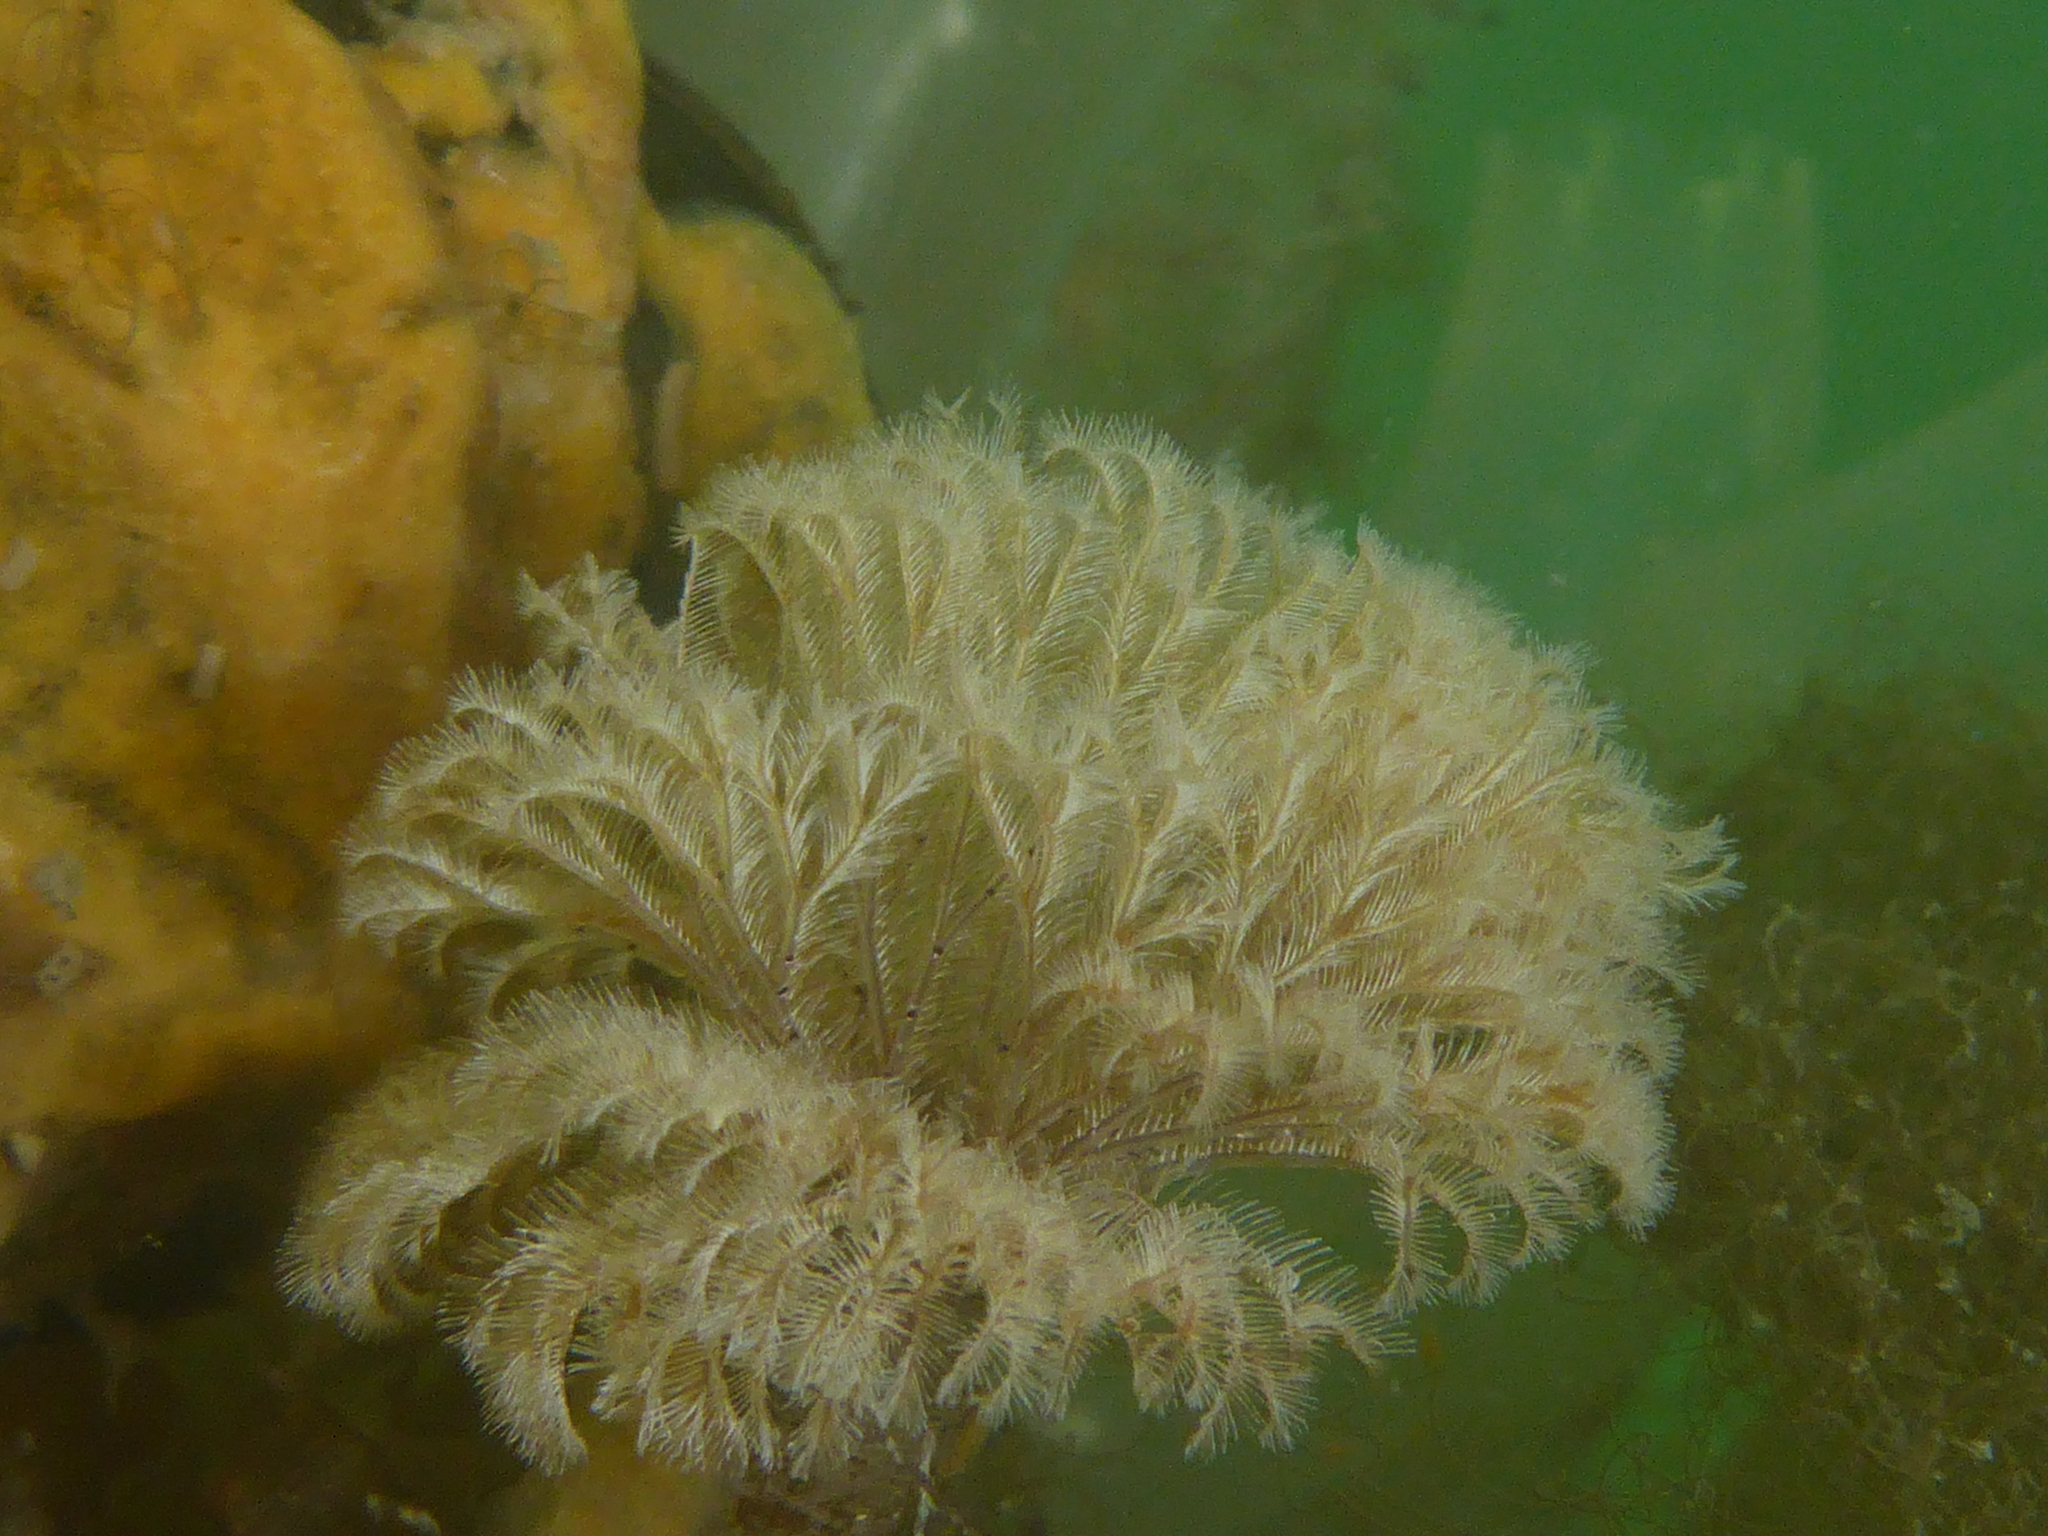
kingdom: Animalia
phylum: Annelida
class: Polychaeta
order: Sabellida
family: Sabellidae
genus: Schizobranchia
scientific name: Schizobranchia insignis
